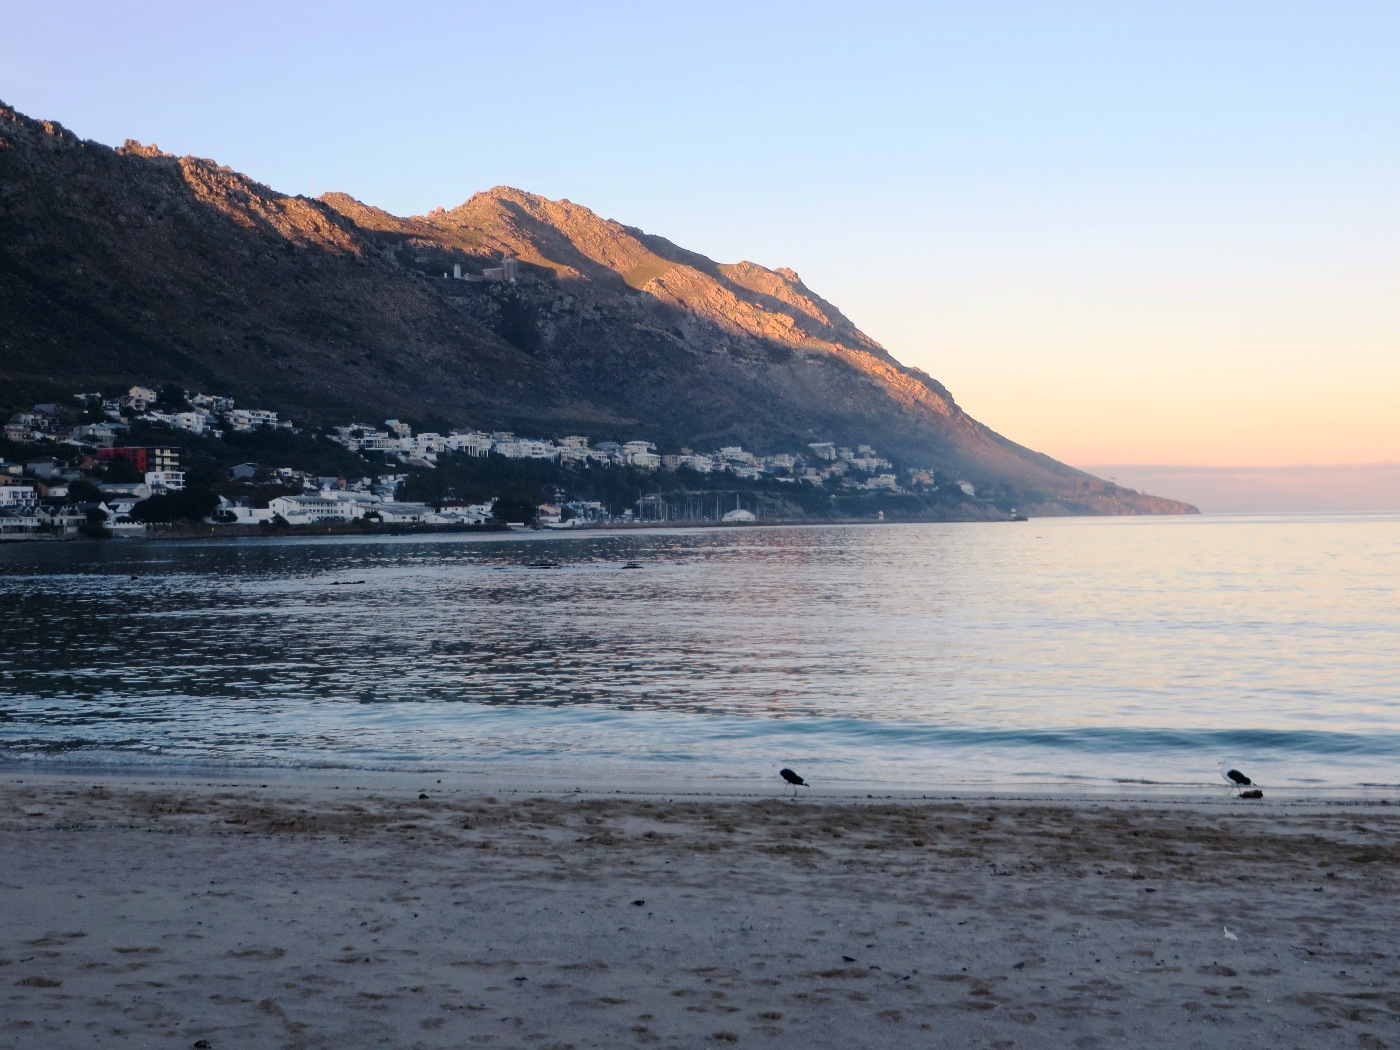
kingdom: Animalia
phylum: Chordata
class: Aves
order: Charadriiformes
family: Laridae
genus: Larus
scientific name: Larus dominicanus
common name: Kelp gull
